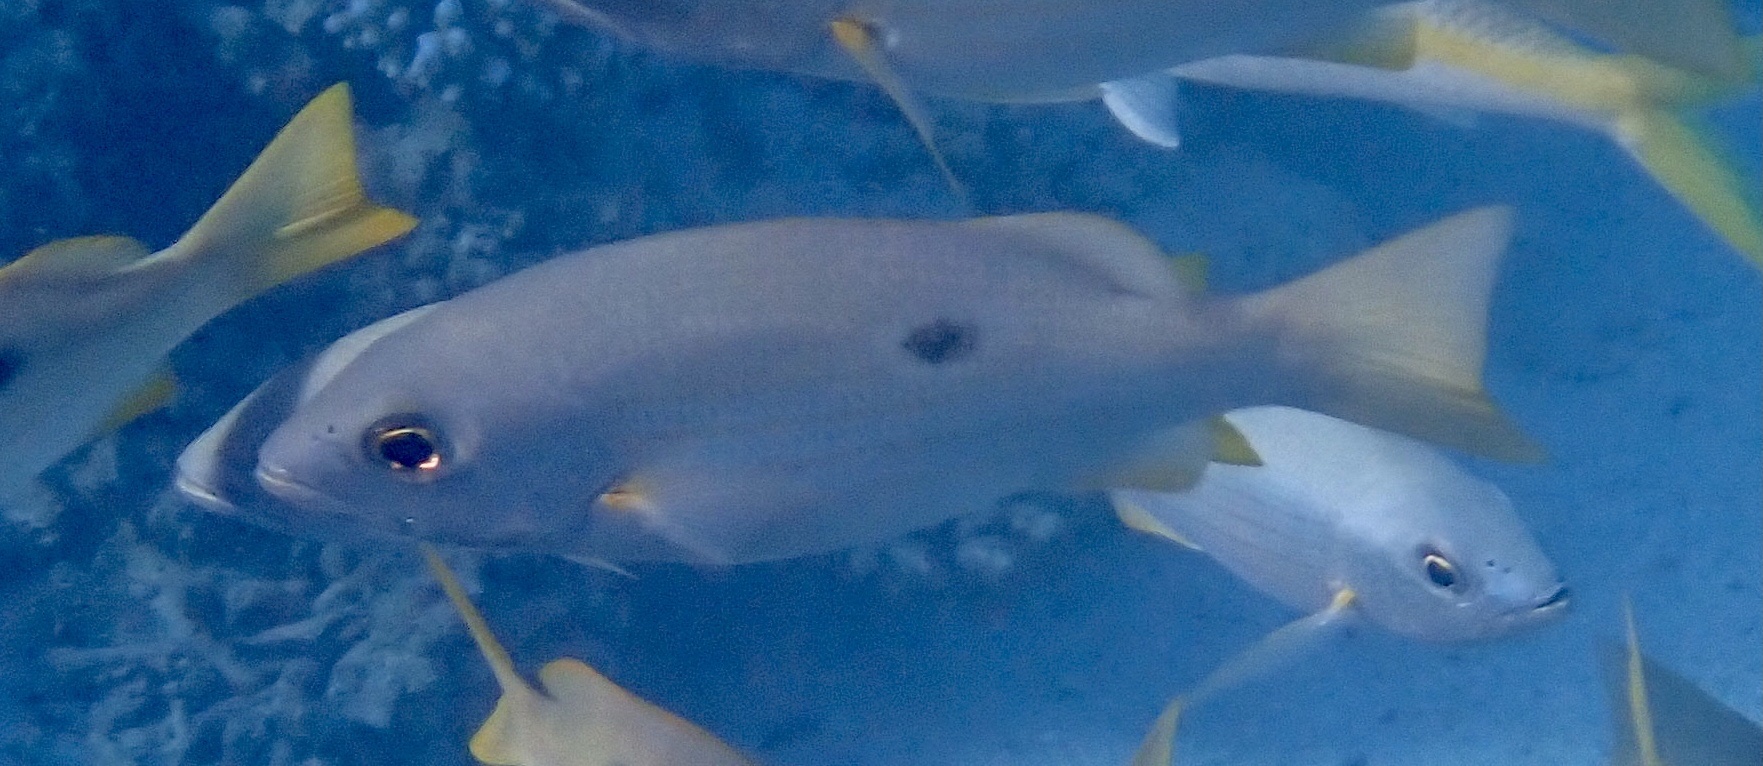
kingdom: Animalia
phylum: Chordata
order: Perciformes
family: Lutjanidae
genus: Lutjanus
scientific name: Lutjanus ehrenbergii
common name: Blackspot snapper
